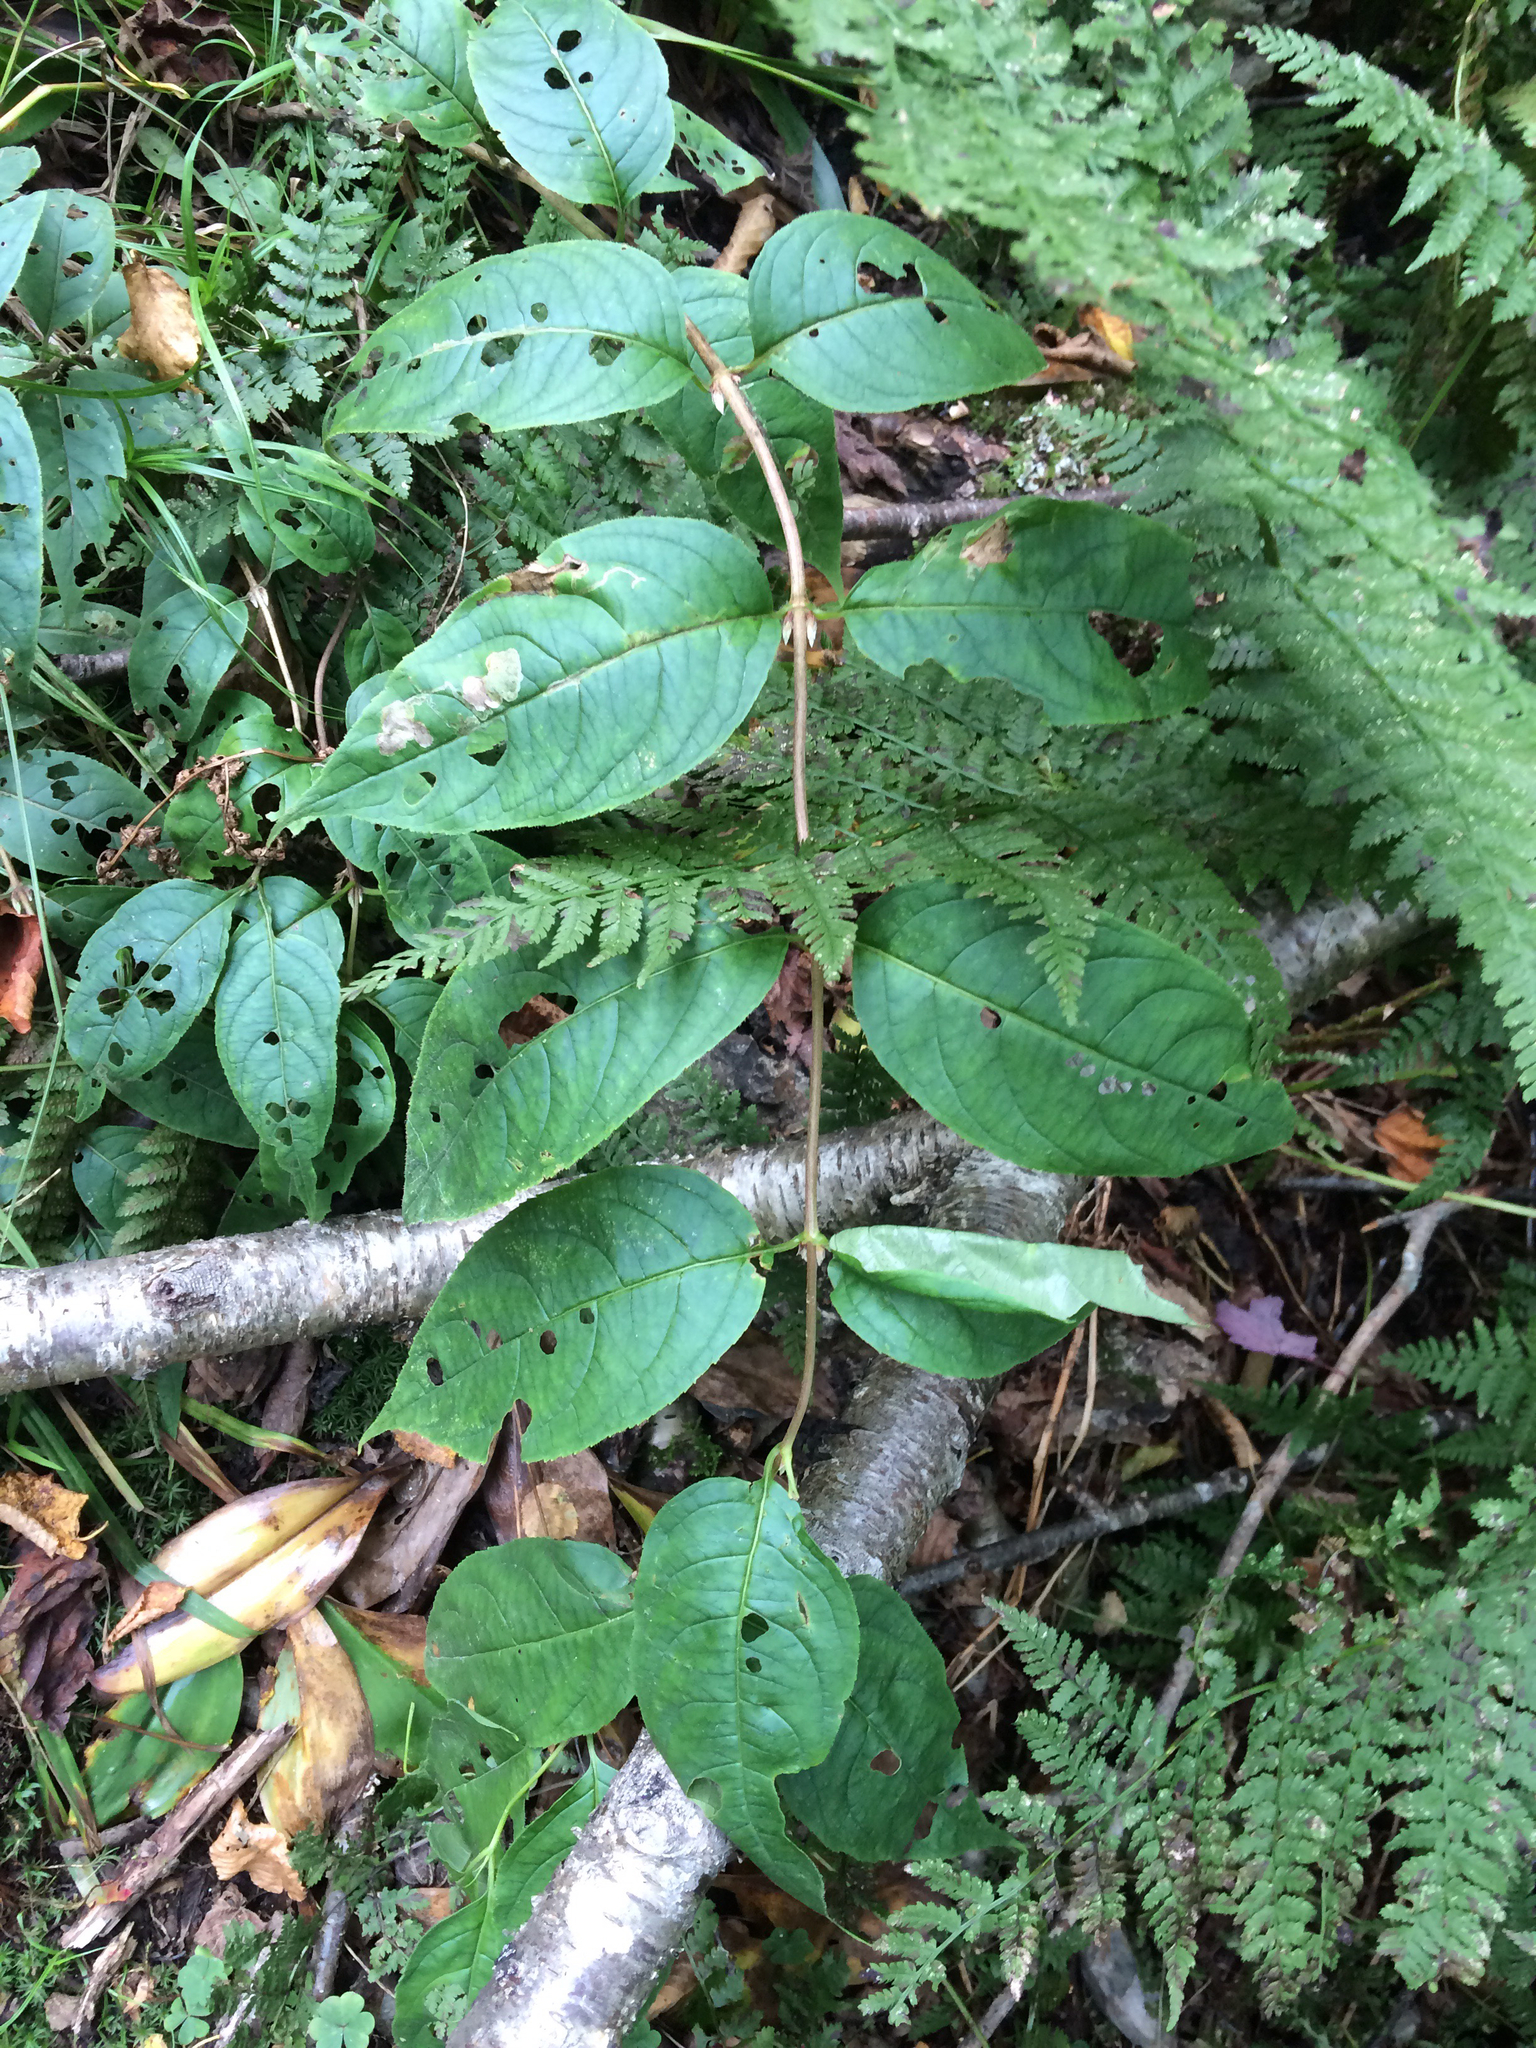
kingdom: Plantae
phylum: Tracheophyta
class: Magnoliopsida
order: Dipsacales
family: Caprifoliaceae
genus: Diervilla
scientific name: Diervilla lonicera
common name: Bush-honeysuckle
